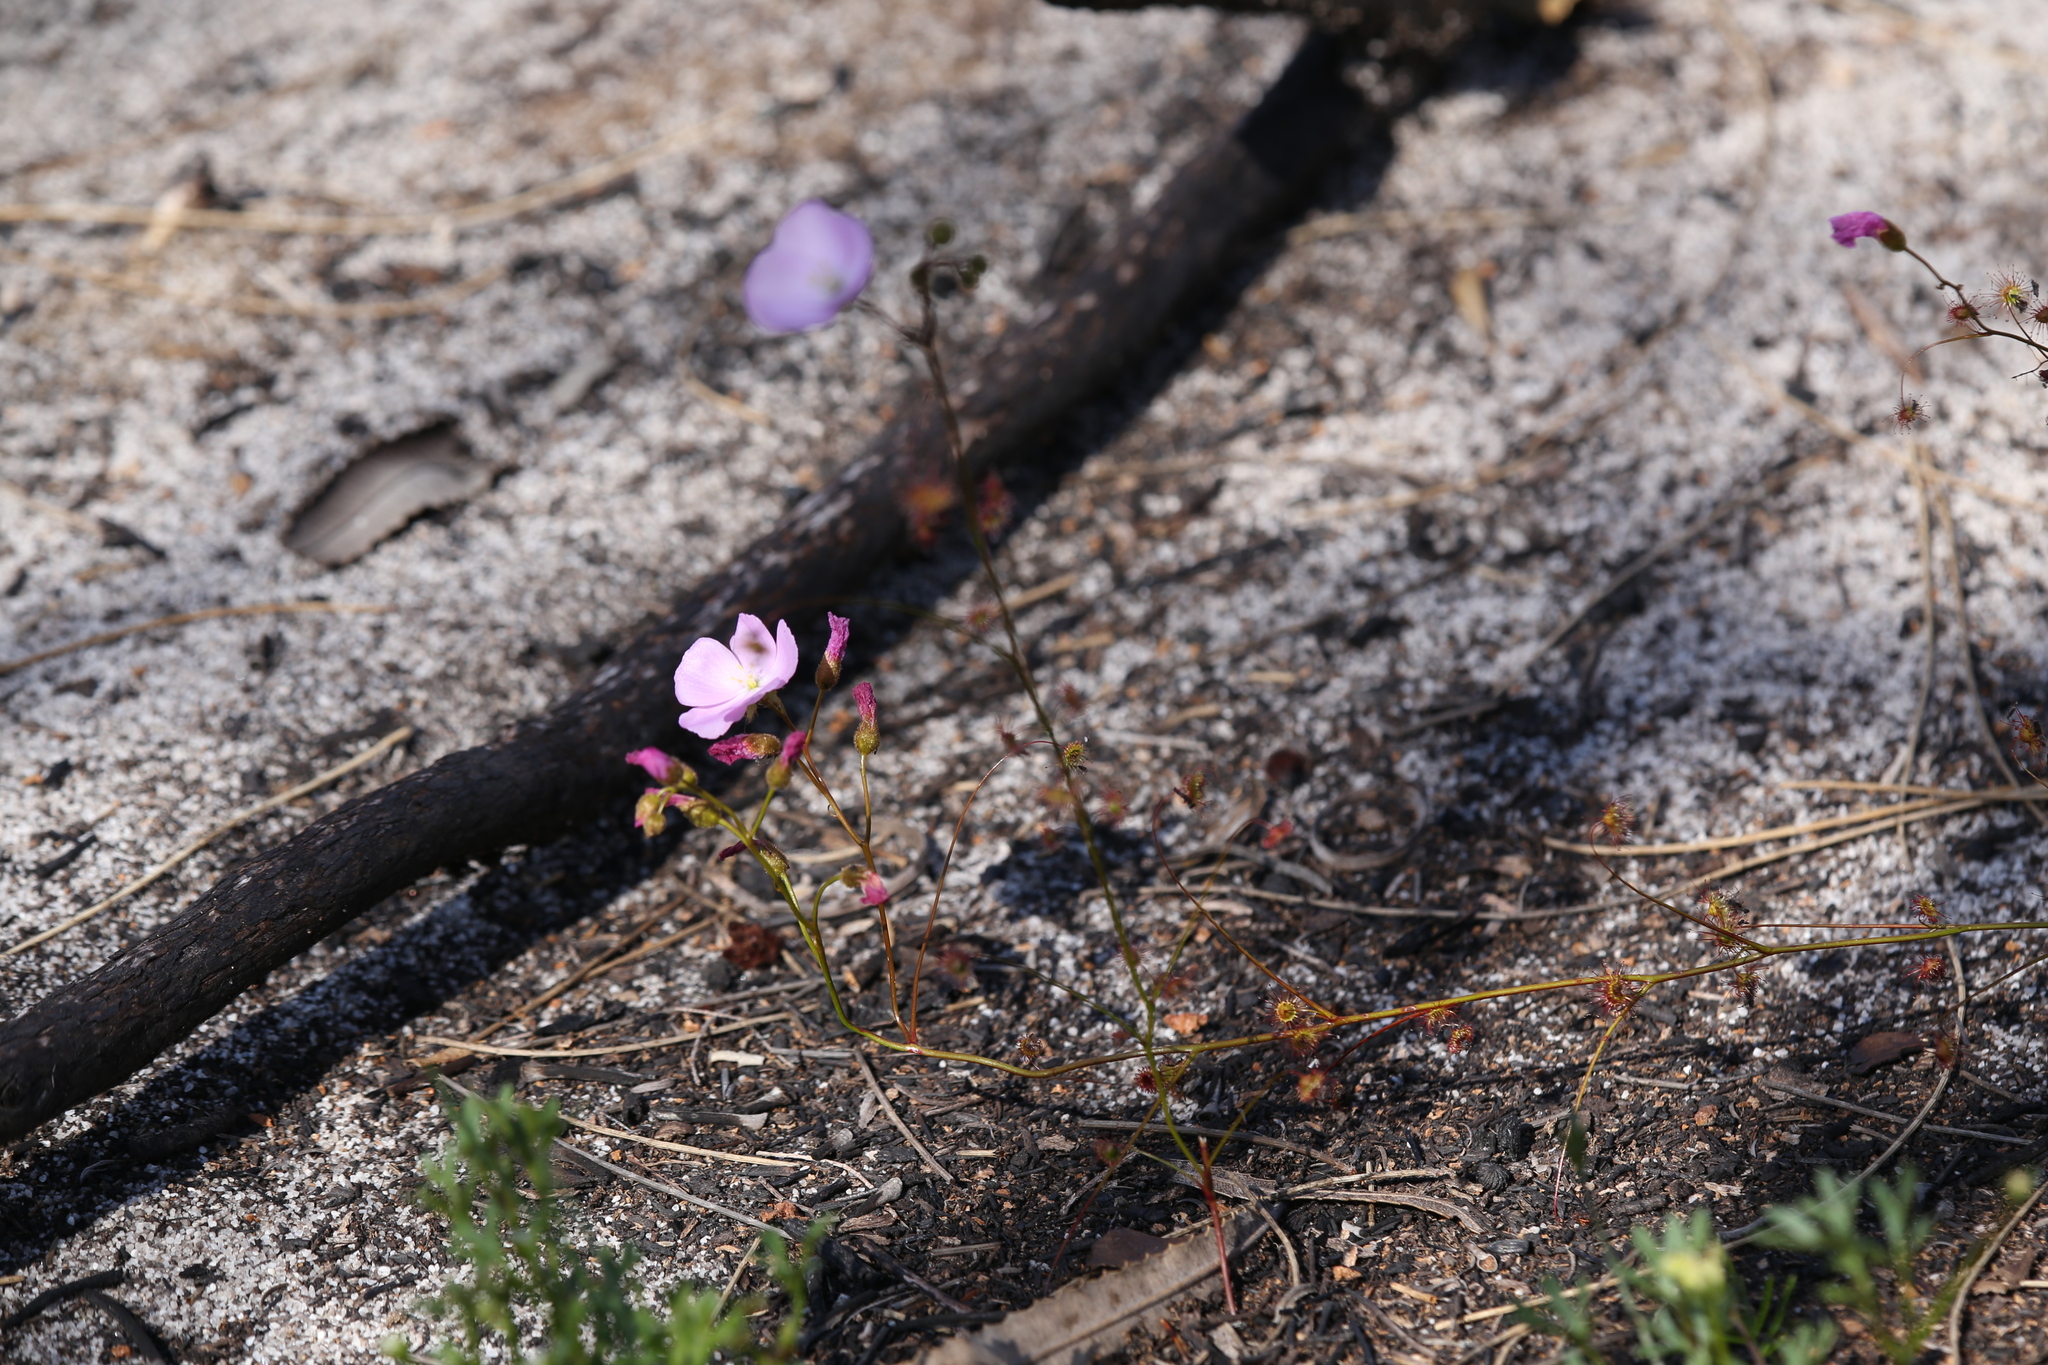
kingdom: Plantae
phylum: Tracheophyta
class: Magnoliopsida
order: Caryophyllales
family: Droseraceae
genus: Drosera
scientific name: Drosera
